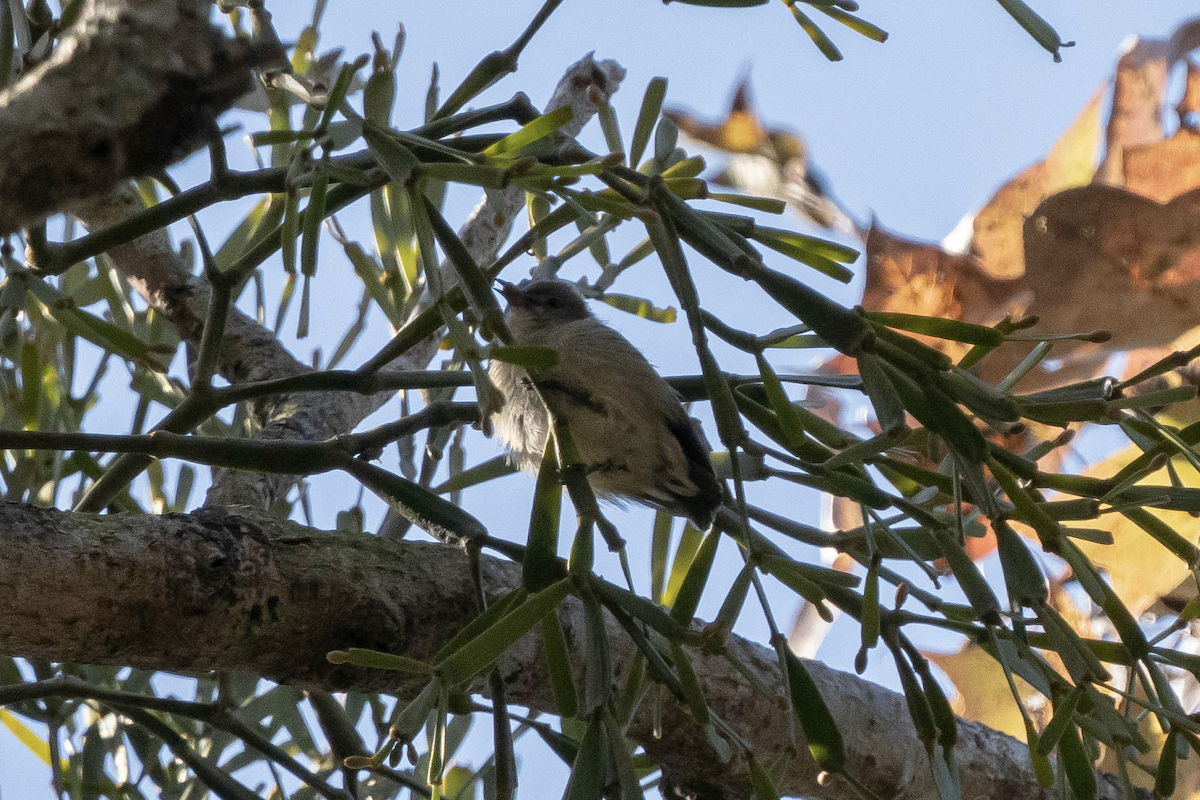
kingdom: Animalia
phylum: Chordata
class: Aves
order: Passeriformes
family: Dicaeidae
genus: Dicaeum
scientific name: Dicaeum ignipectus
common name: Fire-breasted flowerpecker
